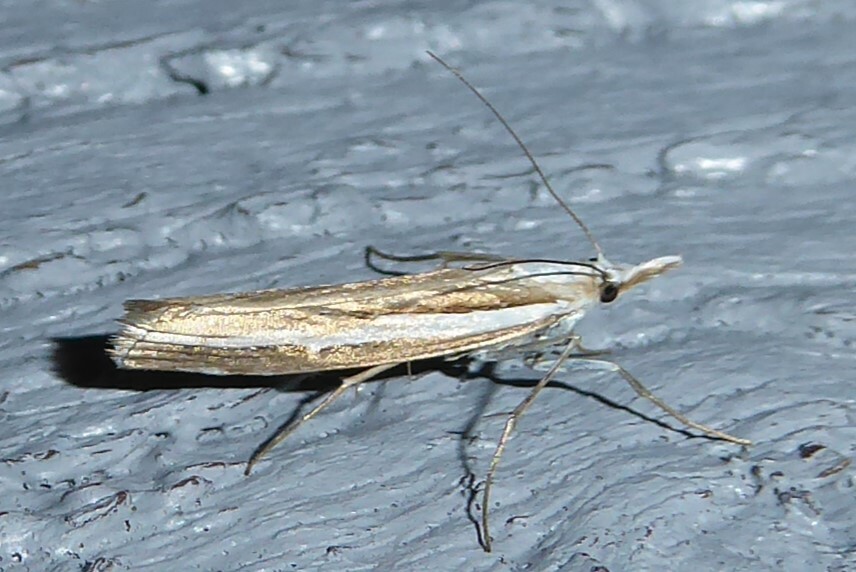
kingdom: Animalia
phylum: Arthropoda
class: Insecta
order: Lepidoptera
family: Crambidae
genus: Orocrambus
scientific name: Orocrambus vittellus
